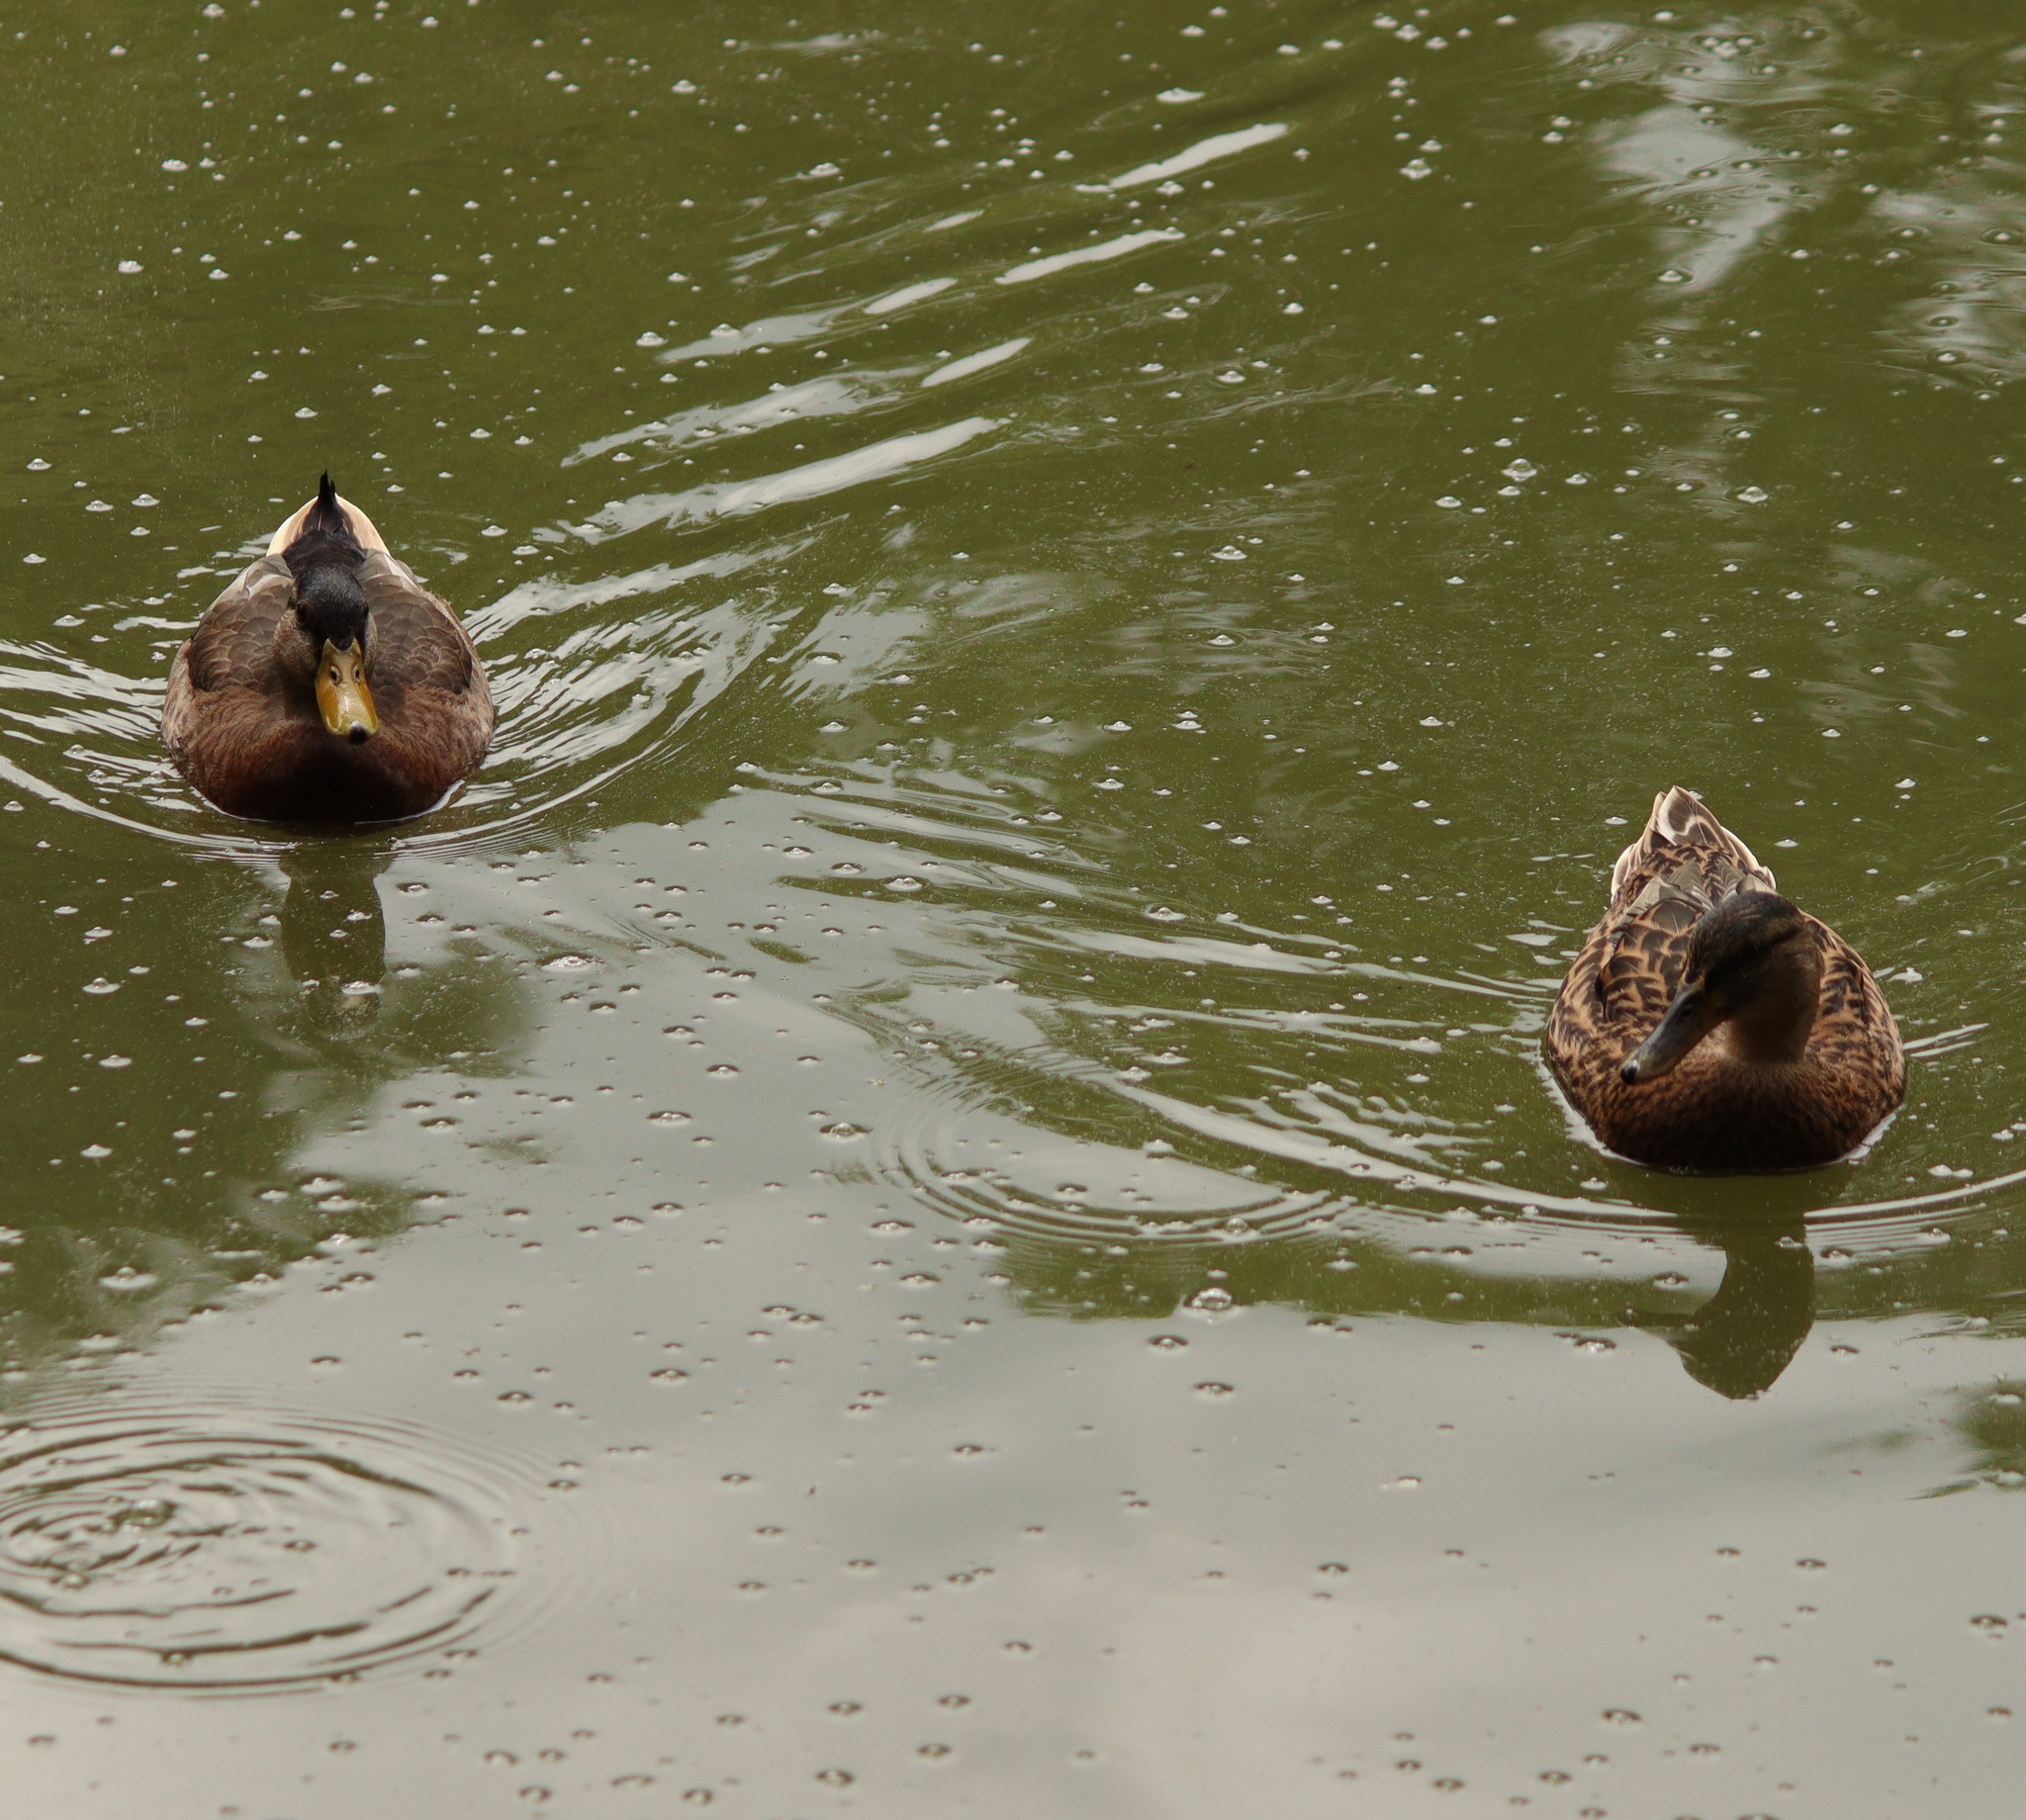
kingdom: Animalia
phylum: Chordata
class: Aves
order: Anseriformes
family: Anatidae
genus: Anas
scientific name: Anas platyrhynchos
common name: Mallard
